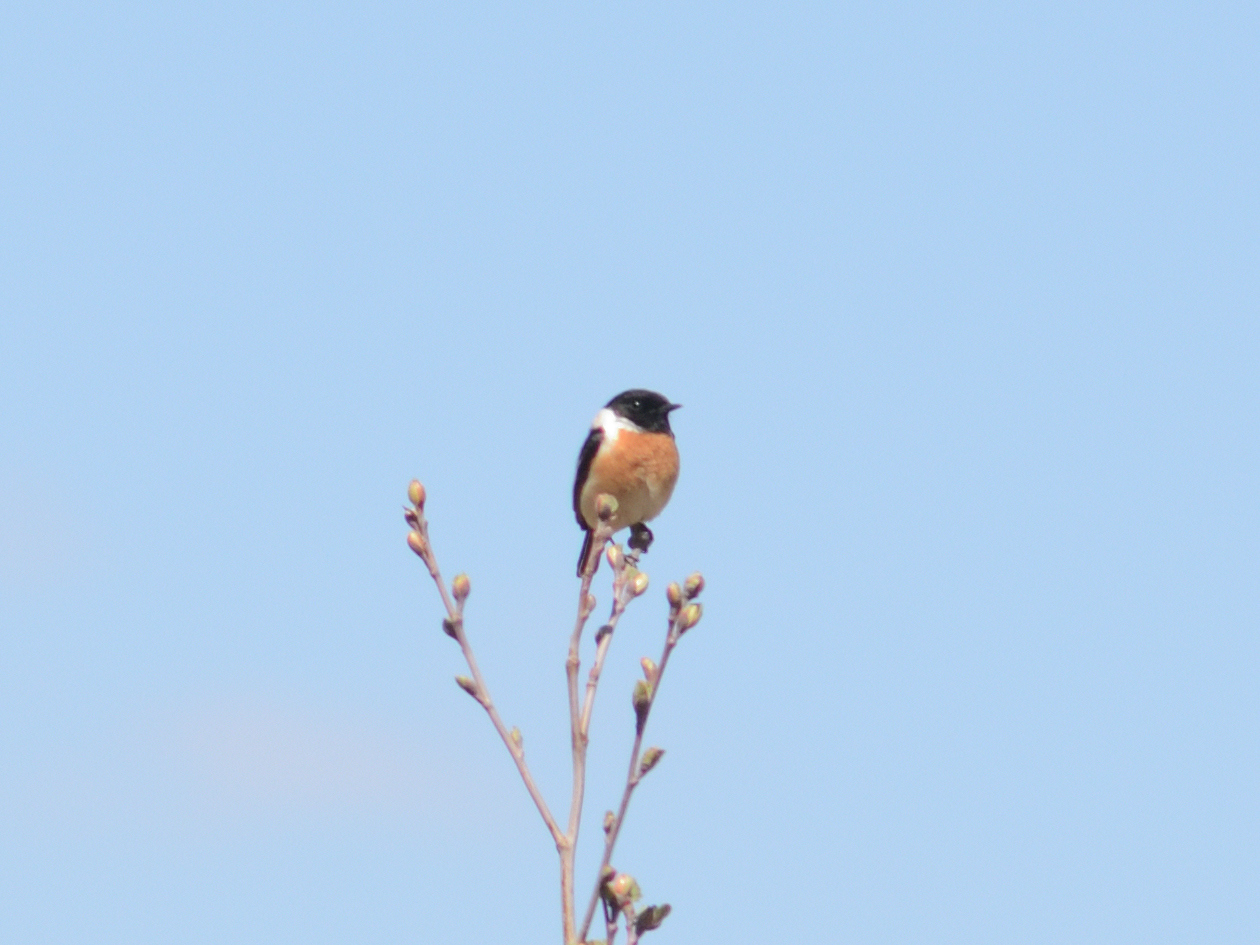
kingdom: Animalia
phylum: Chordata
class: Aves
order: Passeriformes
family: Muscicapidae
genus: Saxicola
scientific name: Saxicola maurus
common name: Siberian stonechat
